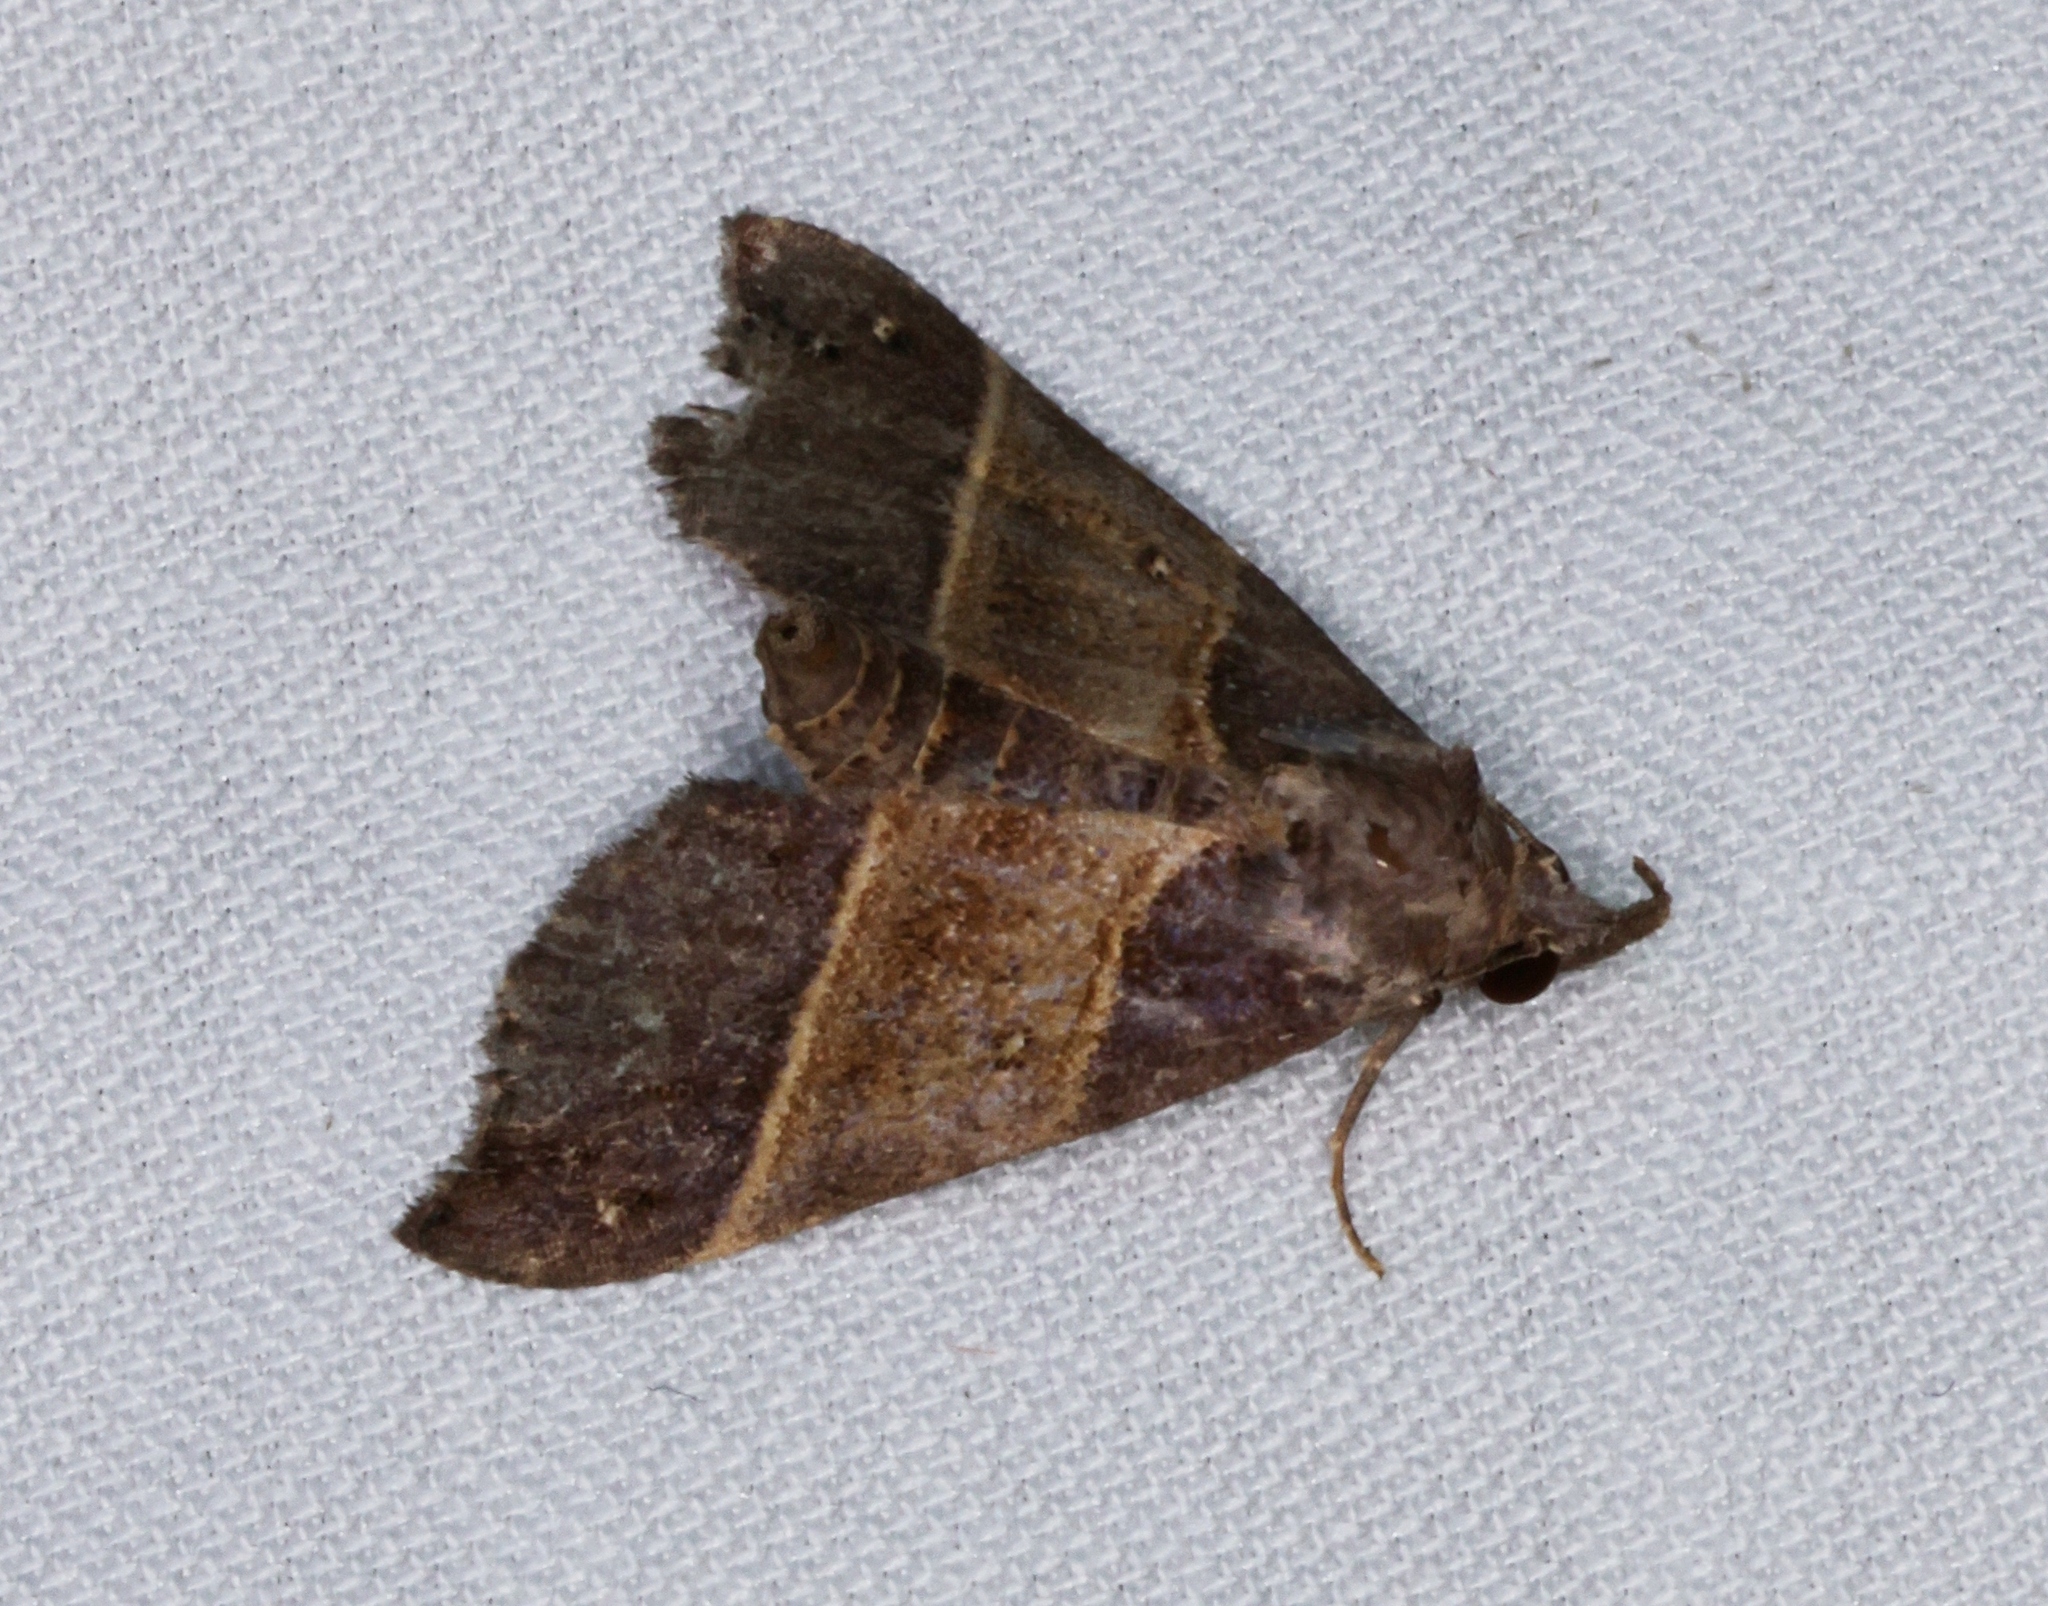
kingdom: Animalia
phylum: Arthropoda
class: Insecta
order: Lepidoptera
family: Erebidae
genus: Acidon
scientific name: Acidon evae
